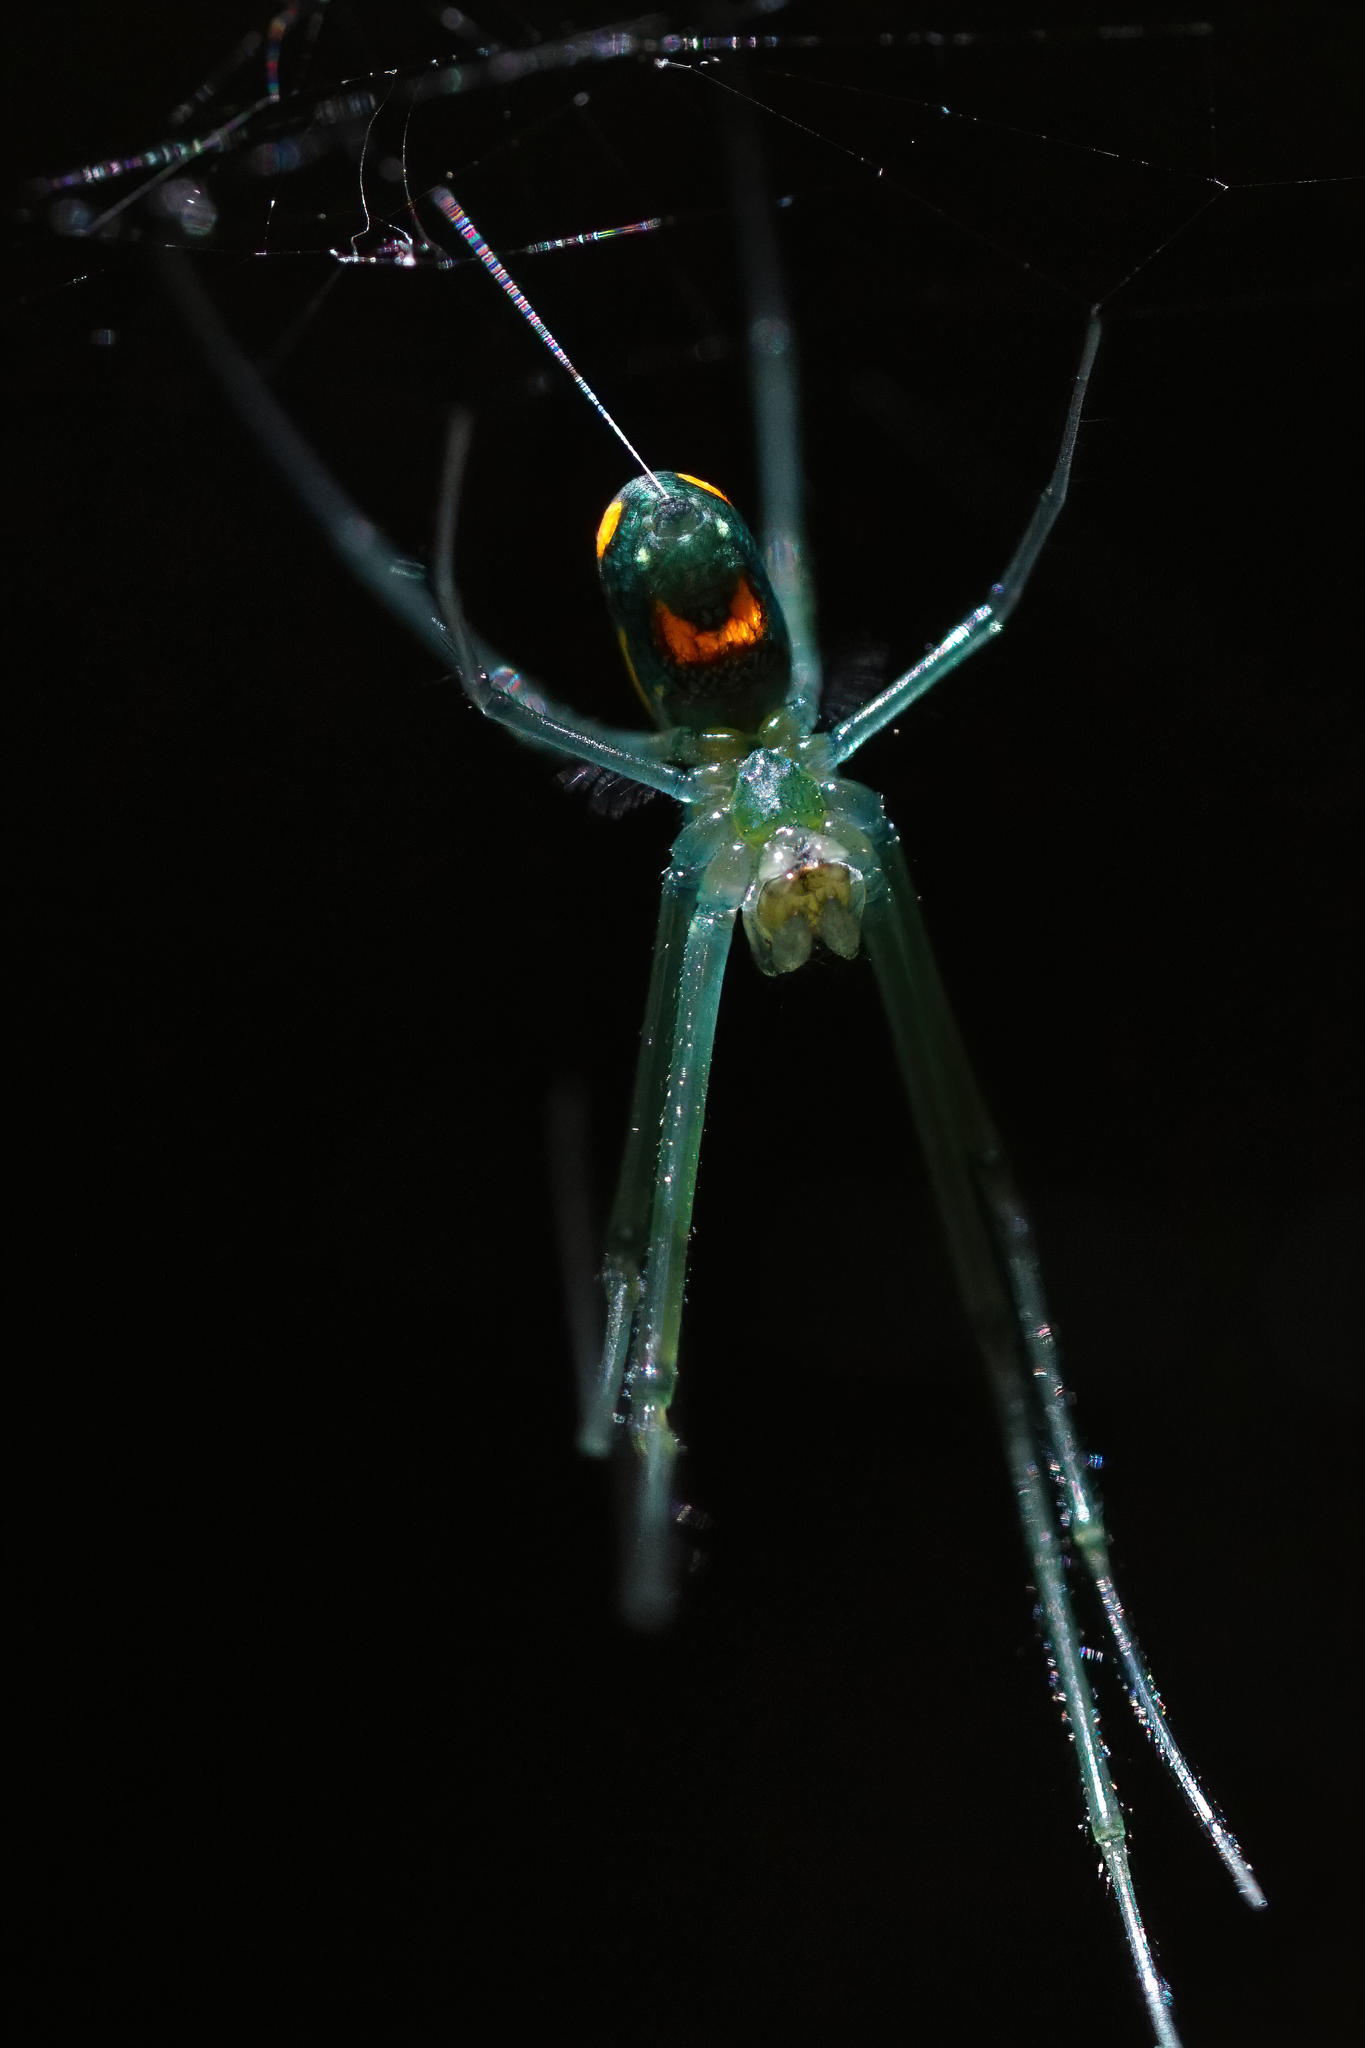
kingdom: Animalia
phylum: Arthropoda
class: Arachnida
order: Araneae
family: Tetragnathidae
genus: Leucauge
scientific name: Leucauge argyrobapta
